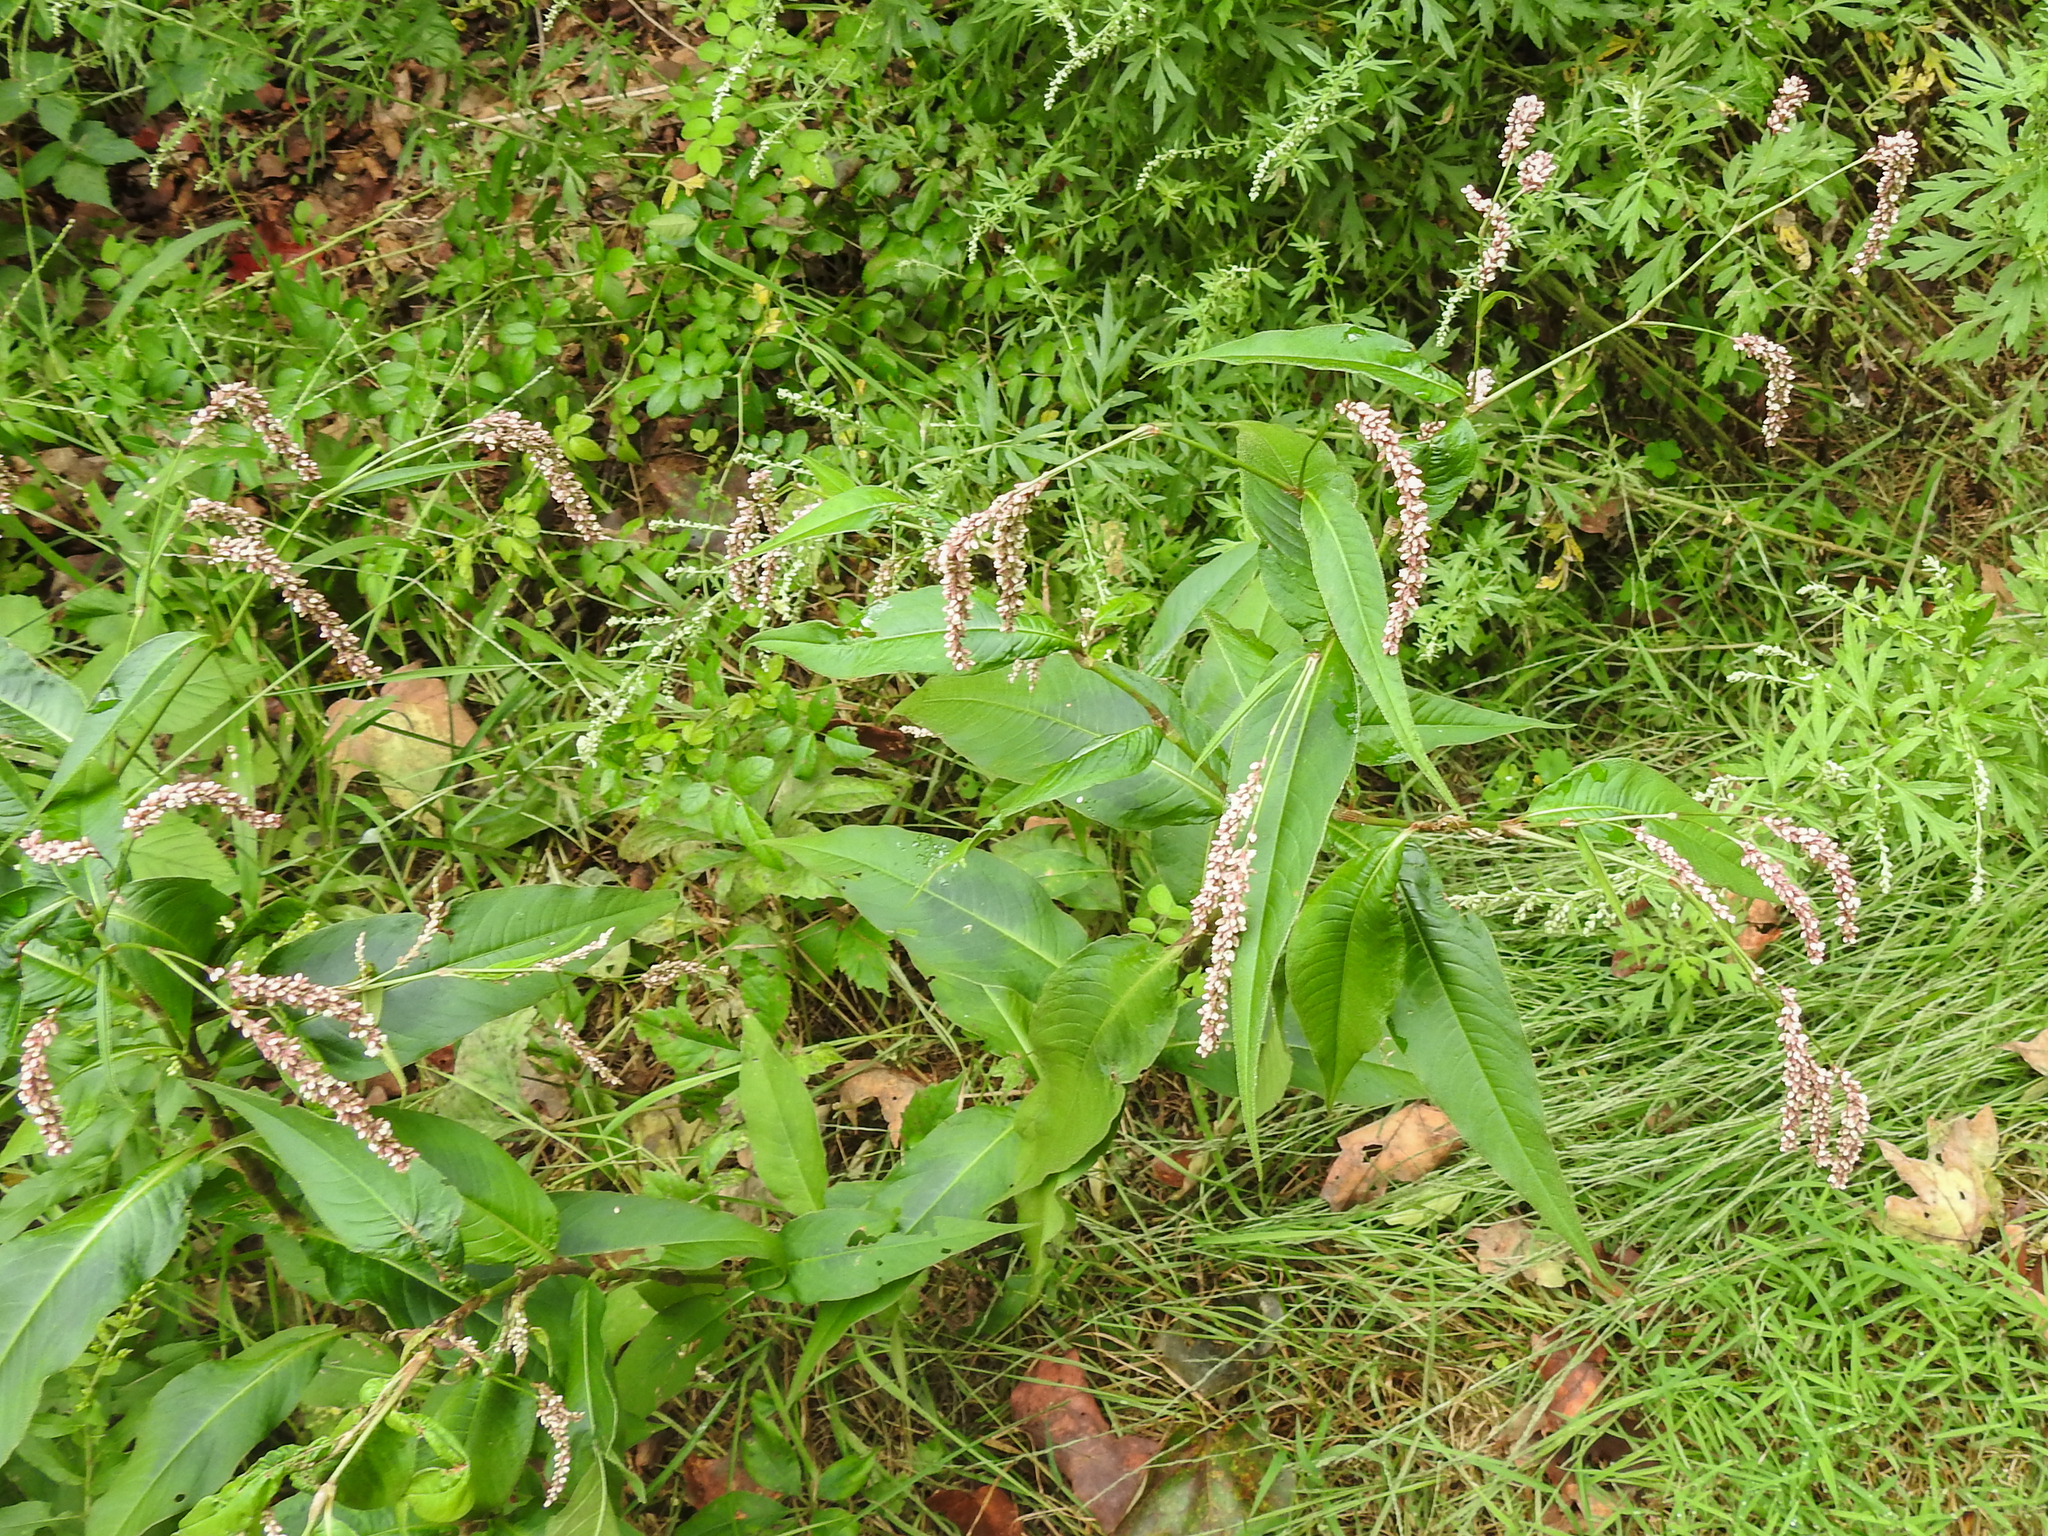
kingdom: Plantae
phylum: Tracheophyta
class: Magnoliopsida
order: Caryophyllales
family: Polygonaceae
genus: Persicaria
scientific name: Persicaria extremiorientalis
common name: Far-eastern smartweed
